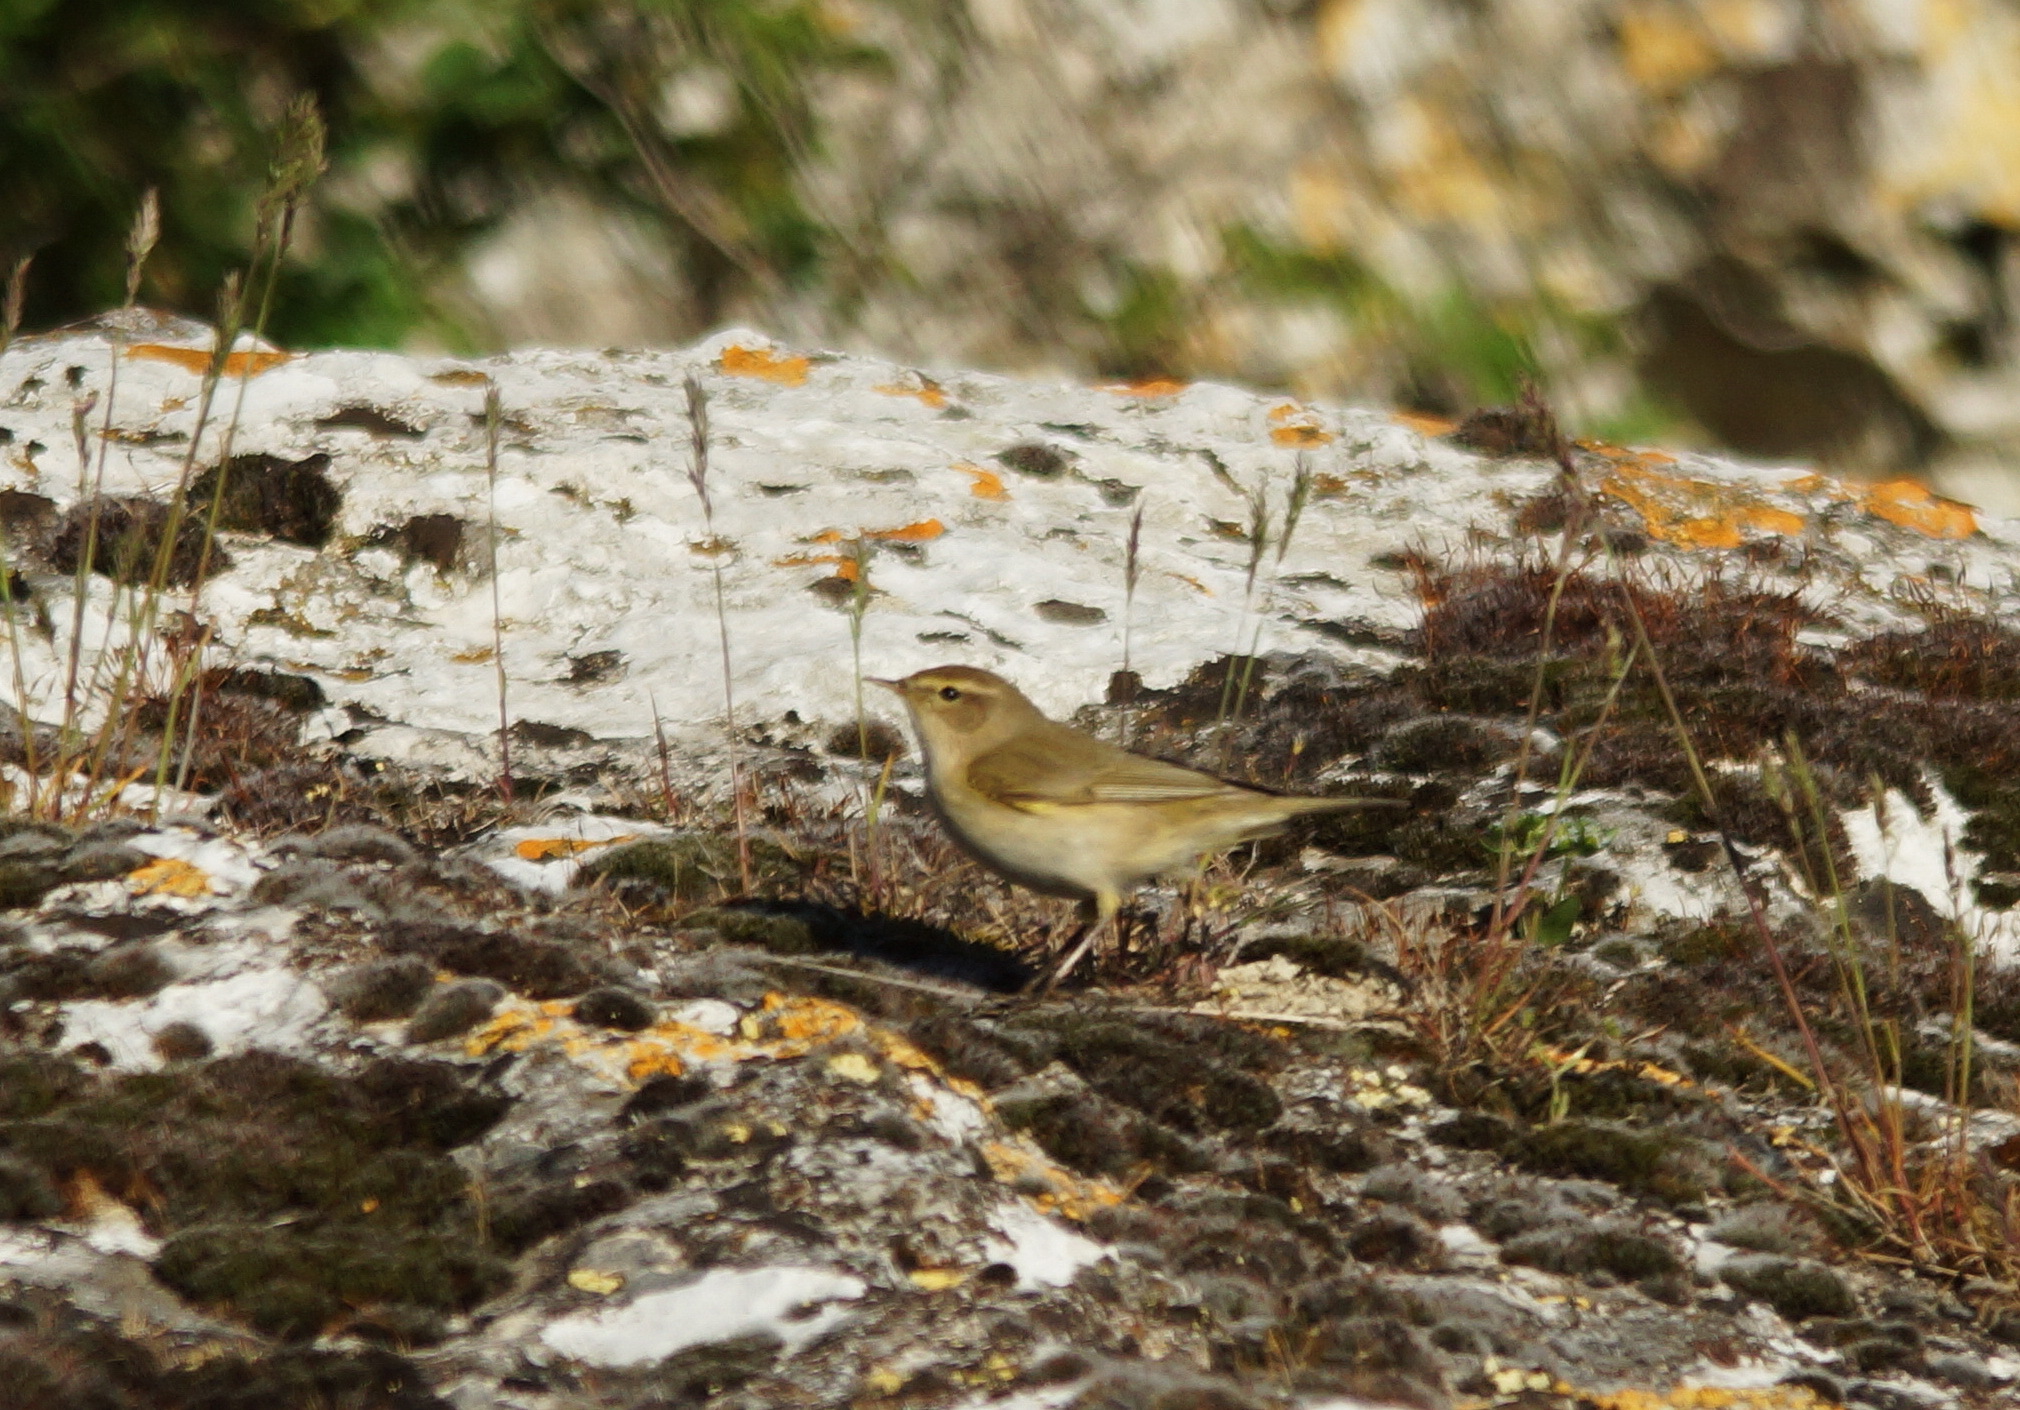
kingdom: Animalia
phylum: Chordata
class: Aves
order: Passeriformes
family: Phylloscopidae
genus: Phylloscopus
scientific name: Phylloscopus collybita
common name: Common chiffchaff
